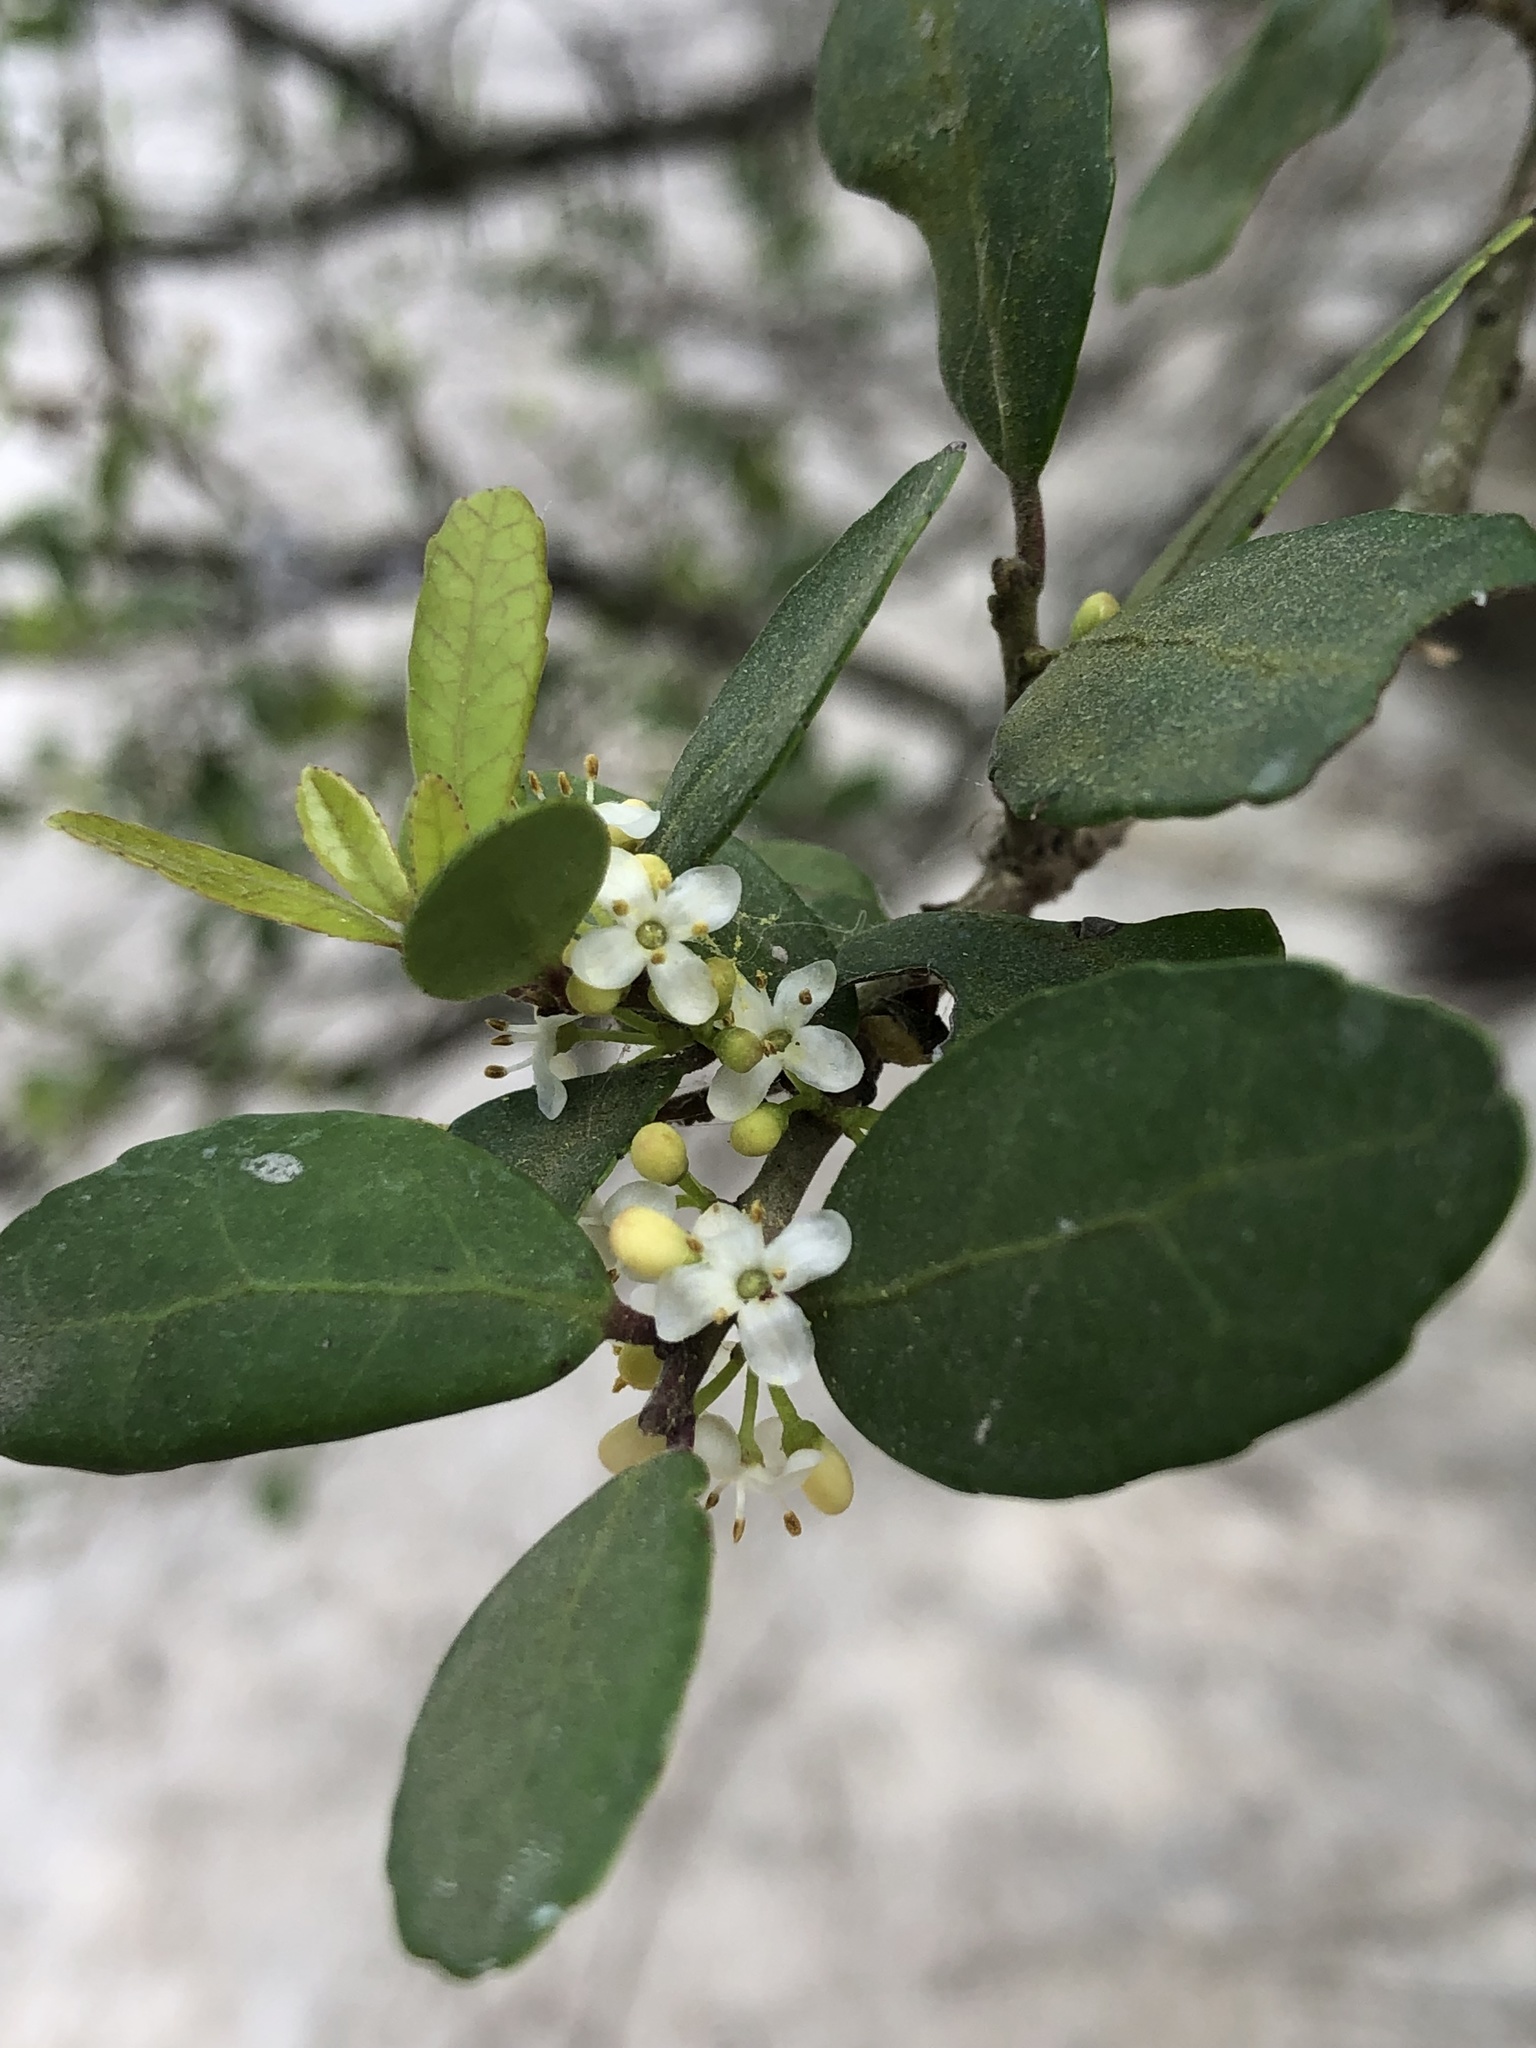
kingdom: Plantae
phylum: Tracheophyta
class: Magnoliopsida
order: Aquifoliales
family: Aquifoliaceae
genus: Ilex
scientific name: Ilex vomitoria
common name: Yaupon holly
